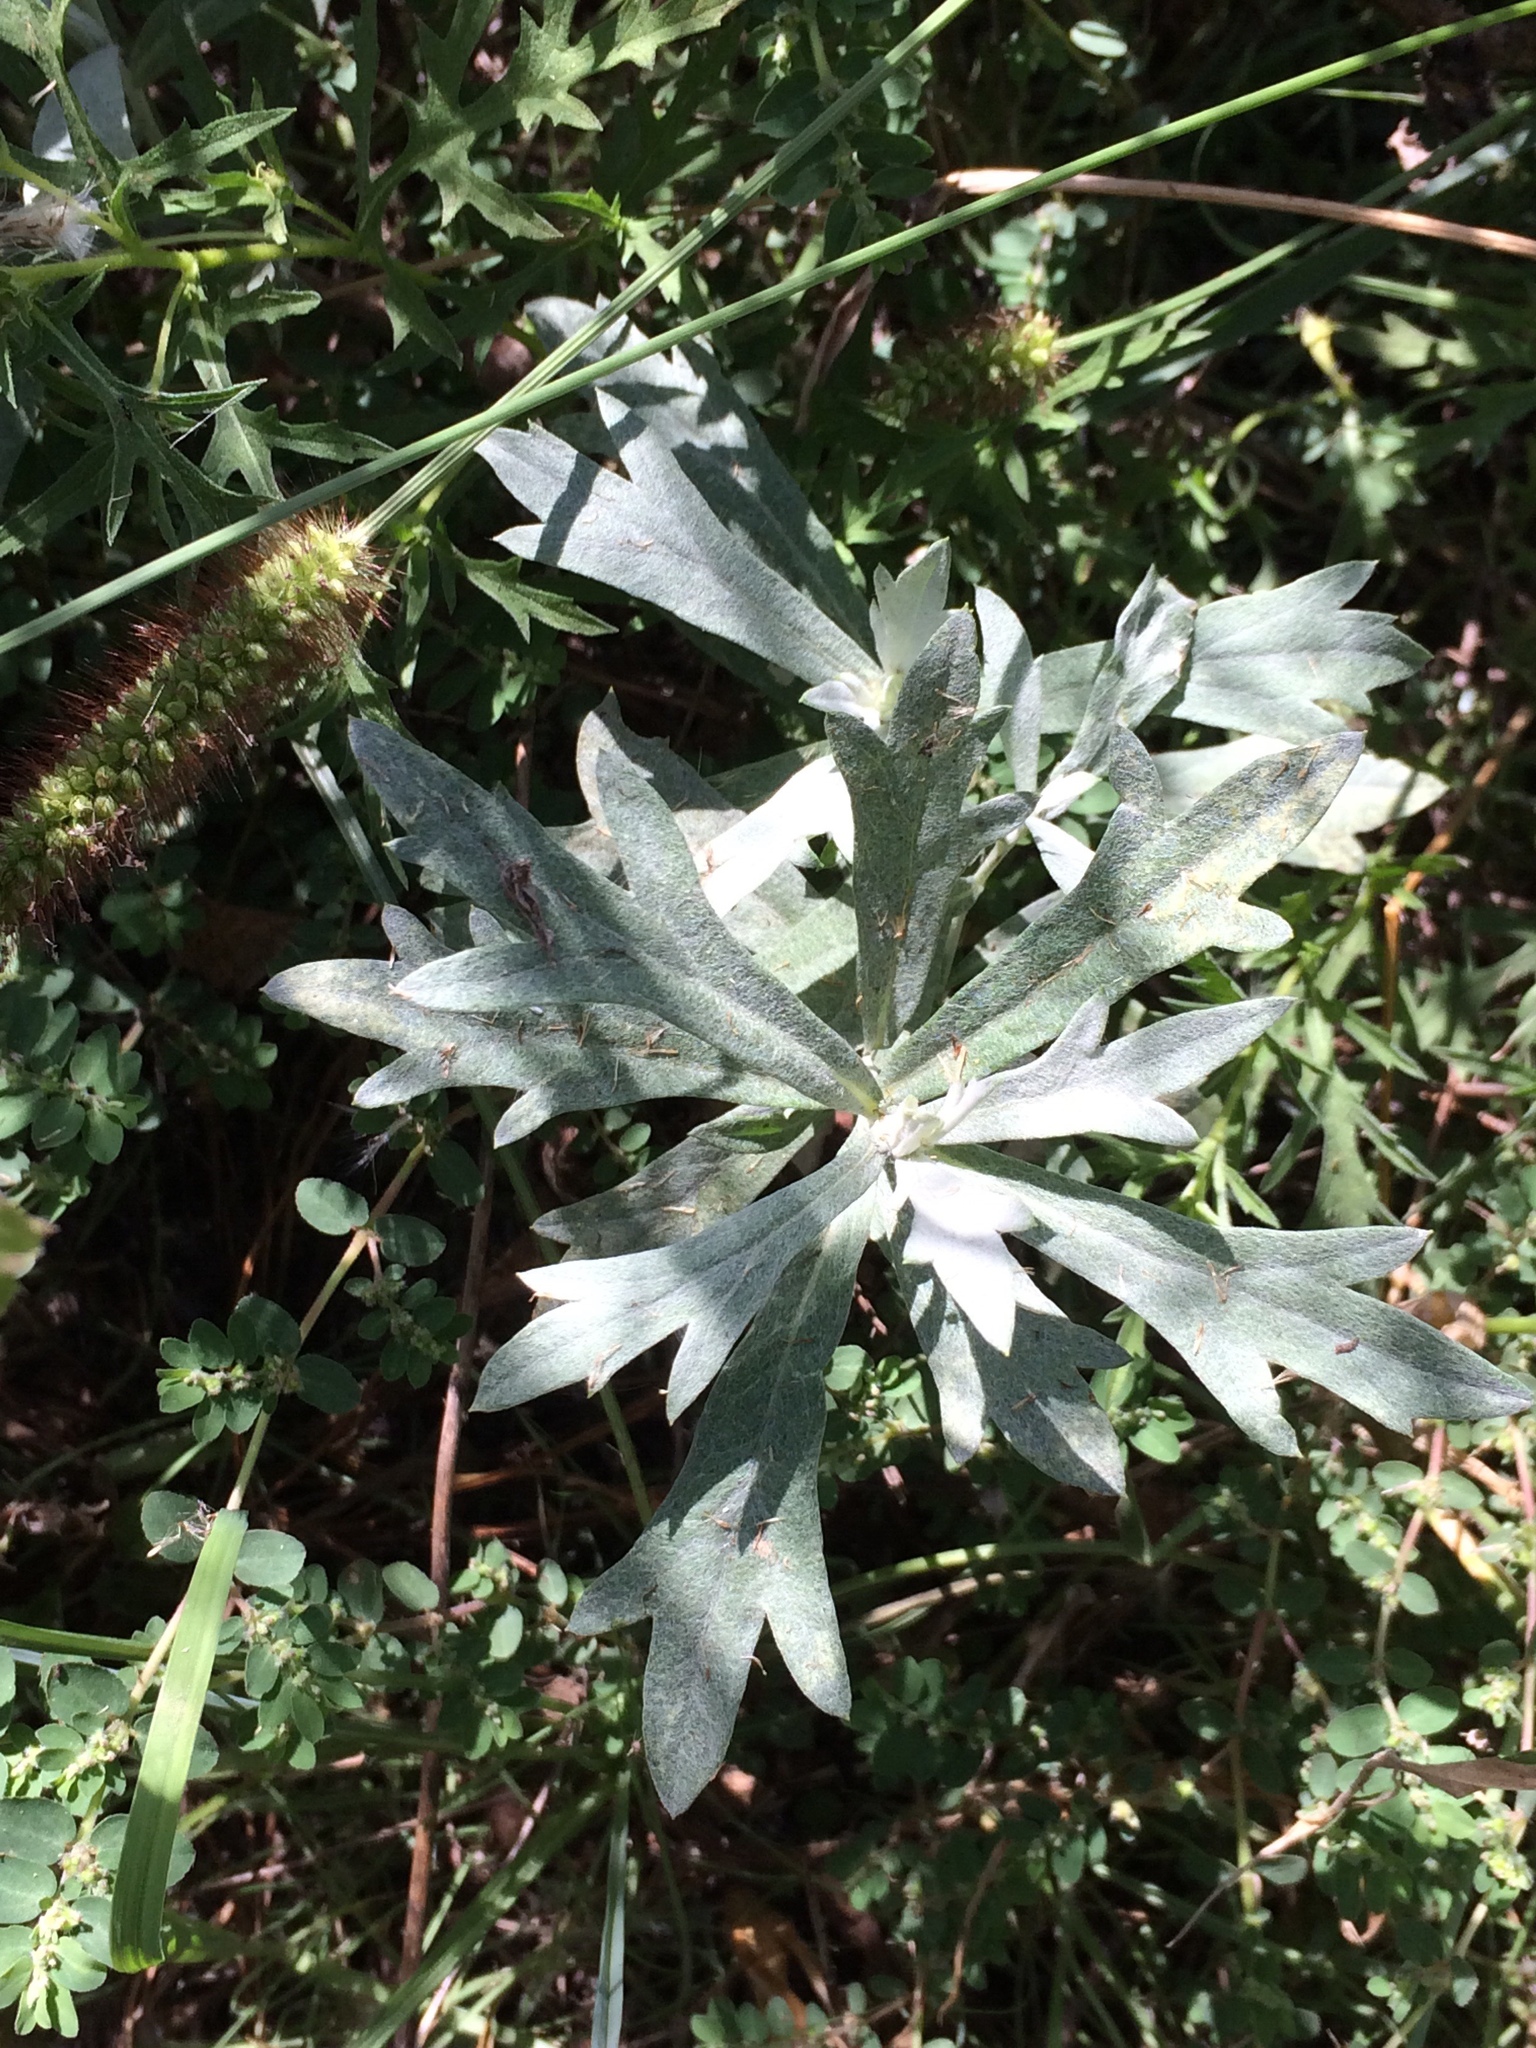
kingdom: Plantae
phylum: Tracheophyta
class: Magnoliopsida
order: Asterales
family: Asteraceae
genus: Artemisia
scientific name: Artemisia ludoviciana
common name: Western mugwort
